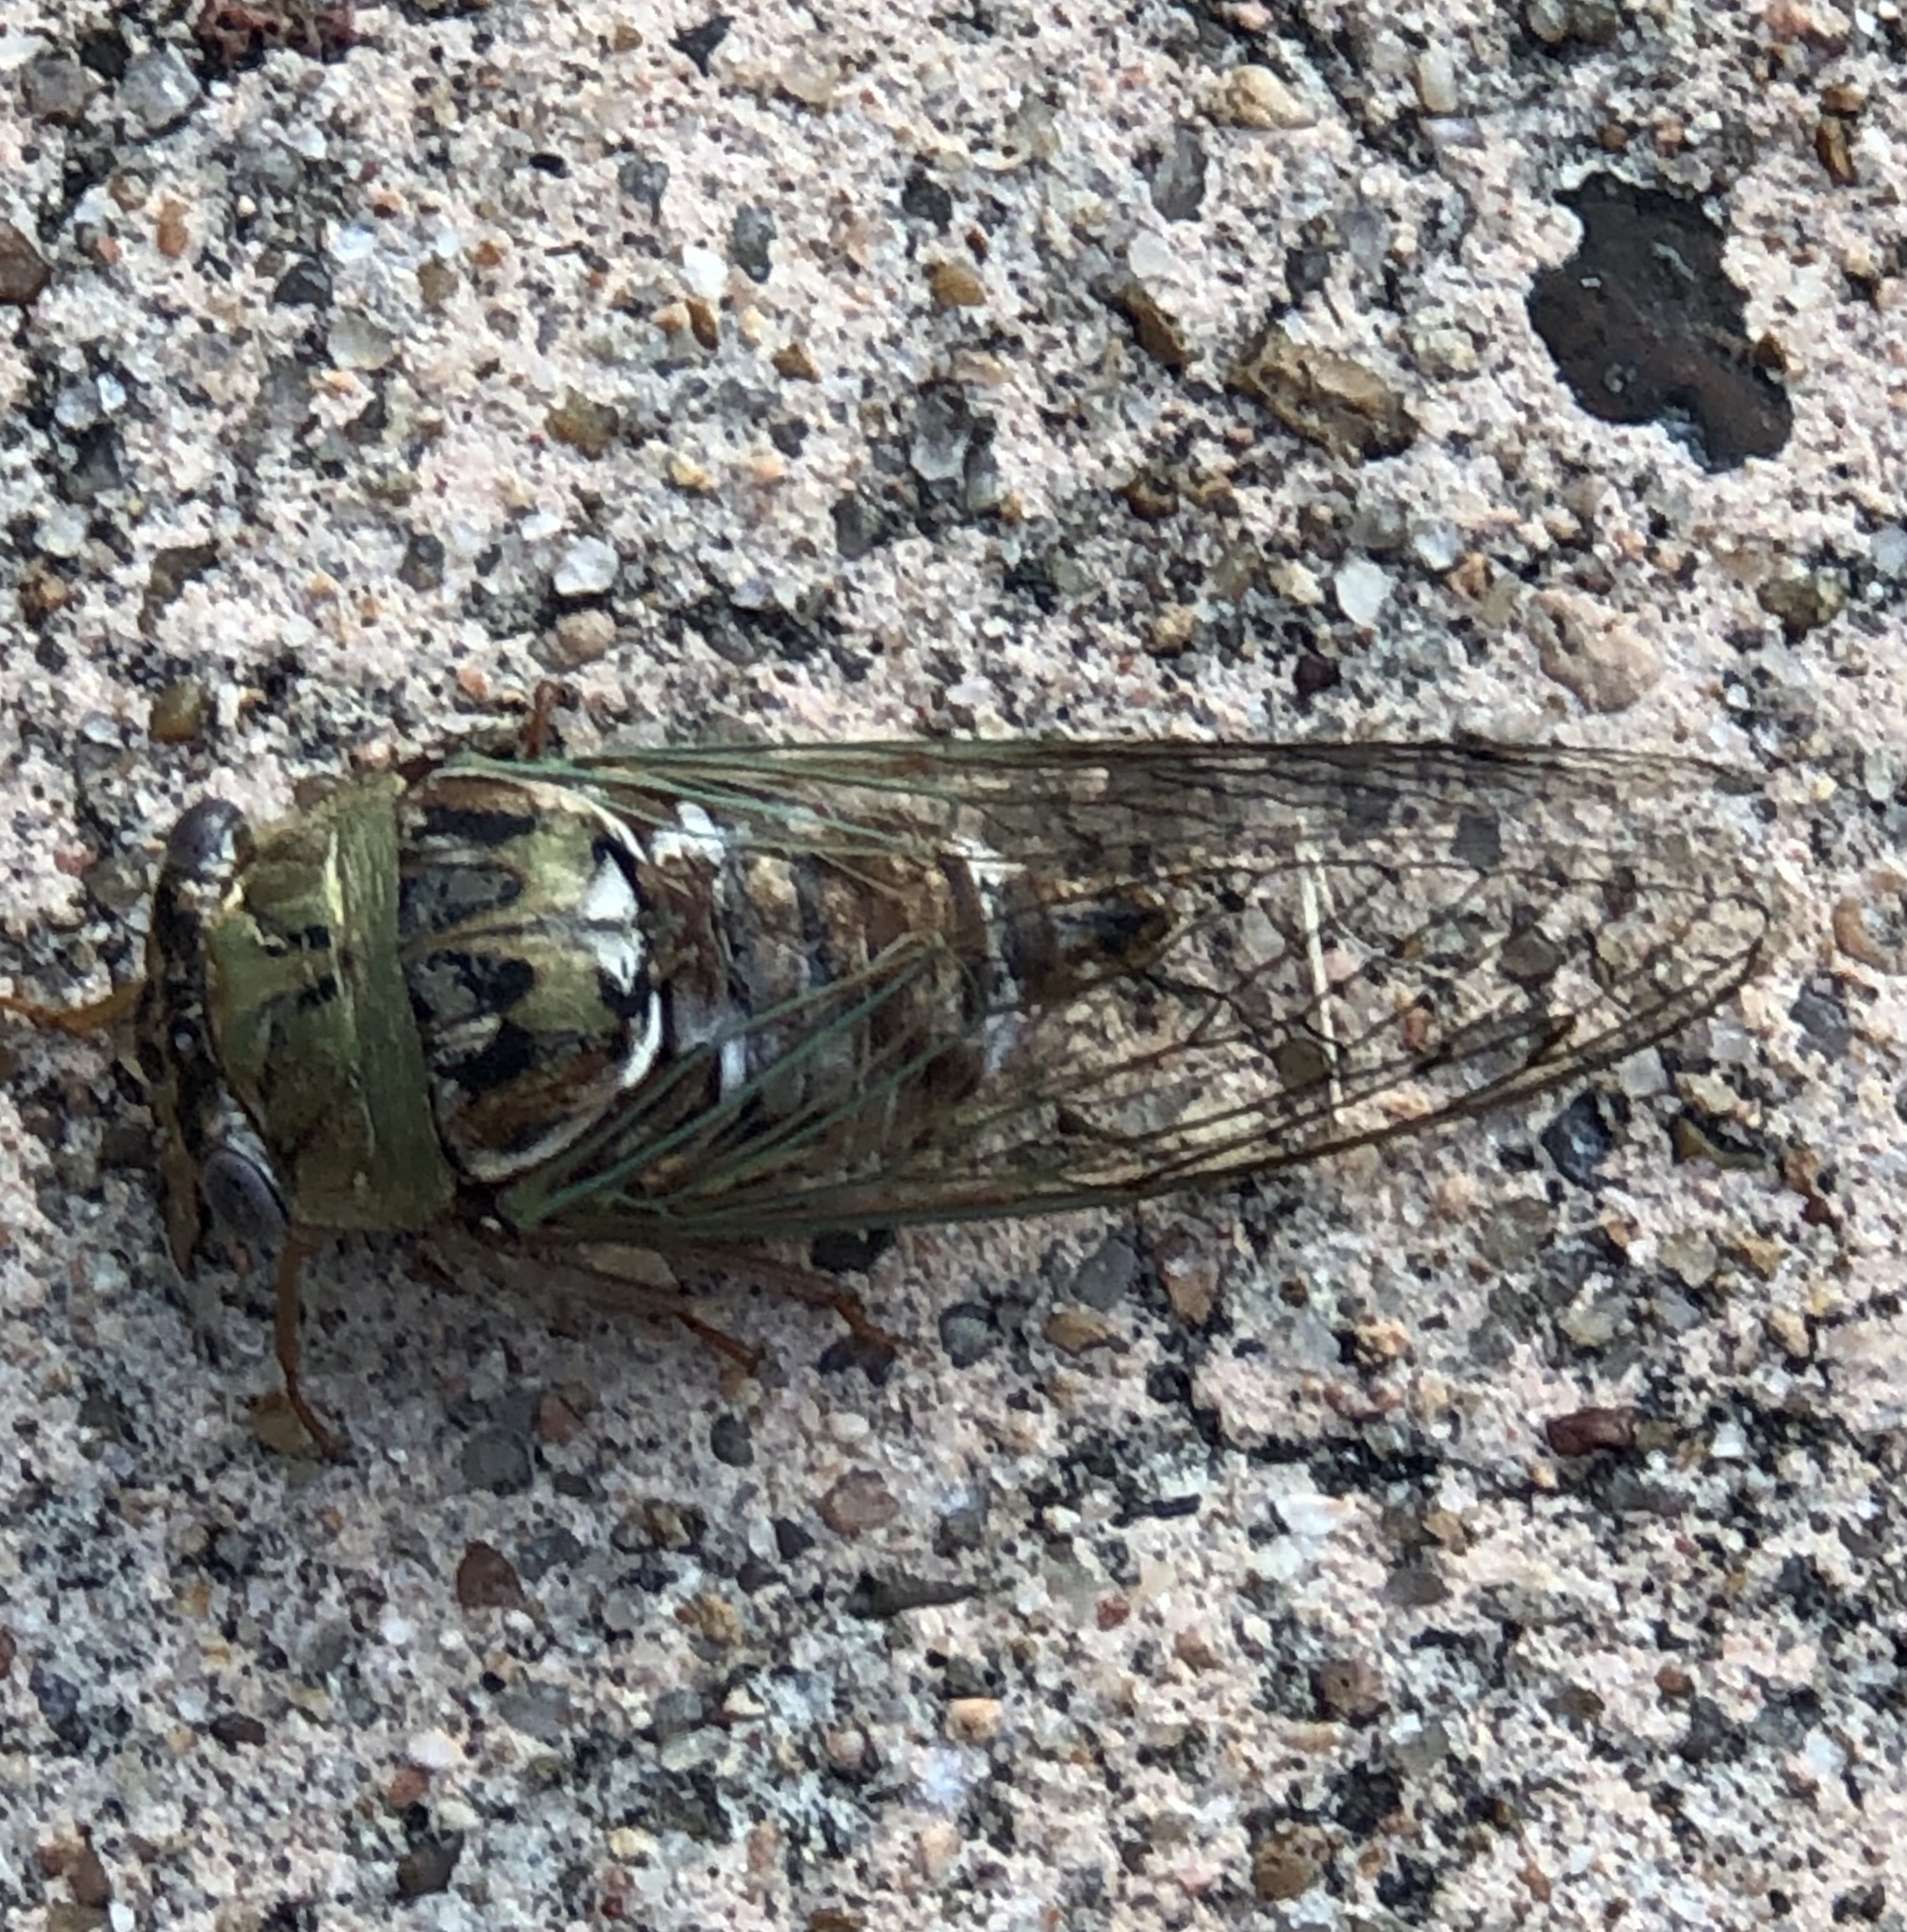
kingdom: Animalia
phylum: Arthropoda
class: Insecta
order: Hemiptera
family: Cicadidae
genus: Megatibicen
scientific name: Megatibicen resh
